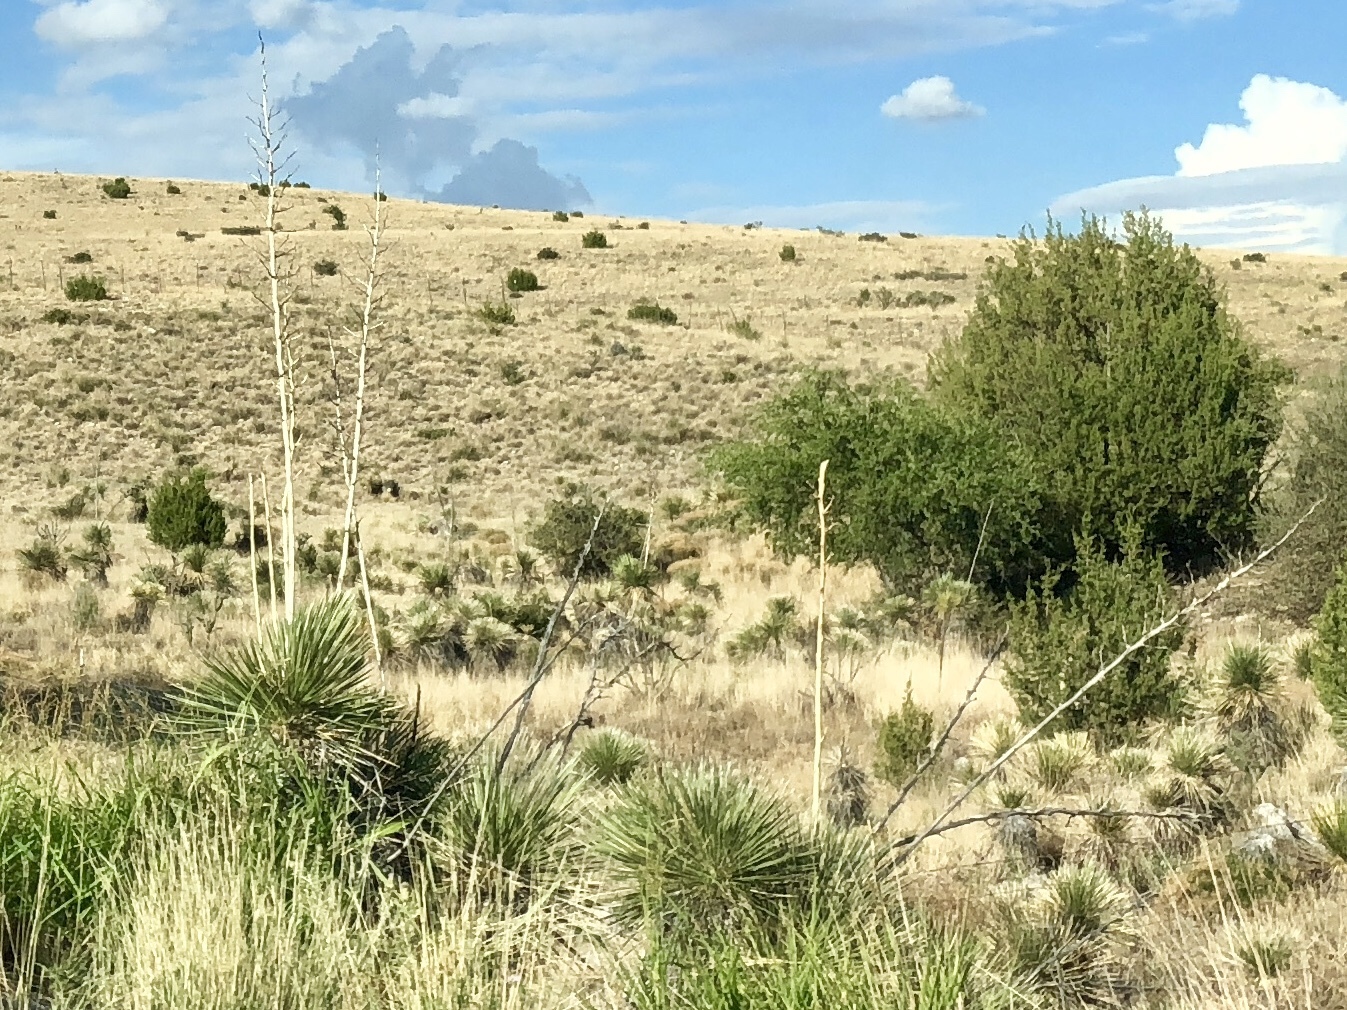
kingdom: Plantae
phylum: Tracheophyta
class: Liliopsida
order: Asparagales
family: Asparagaceae
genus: Yucca
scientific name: Yucca elata
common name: Palmella
